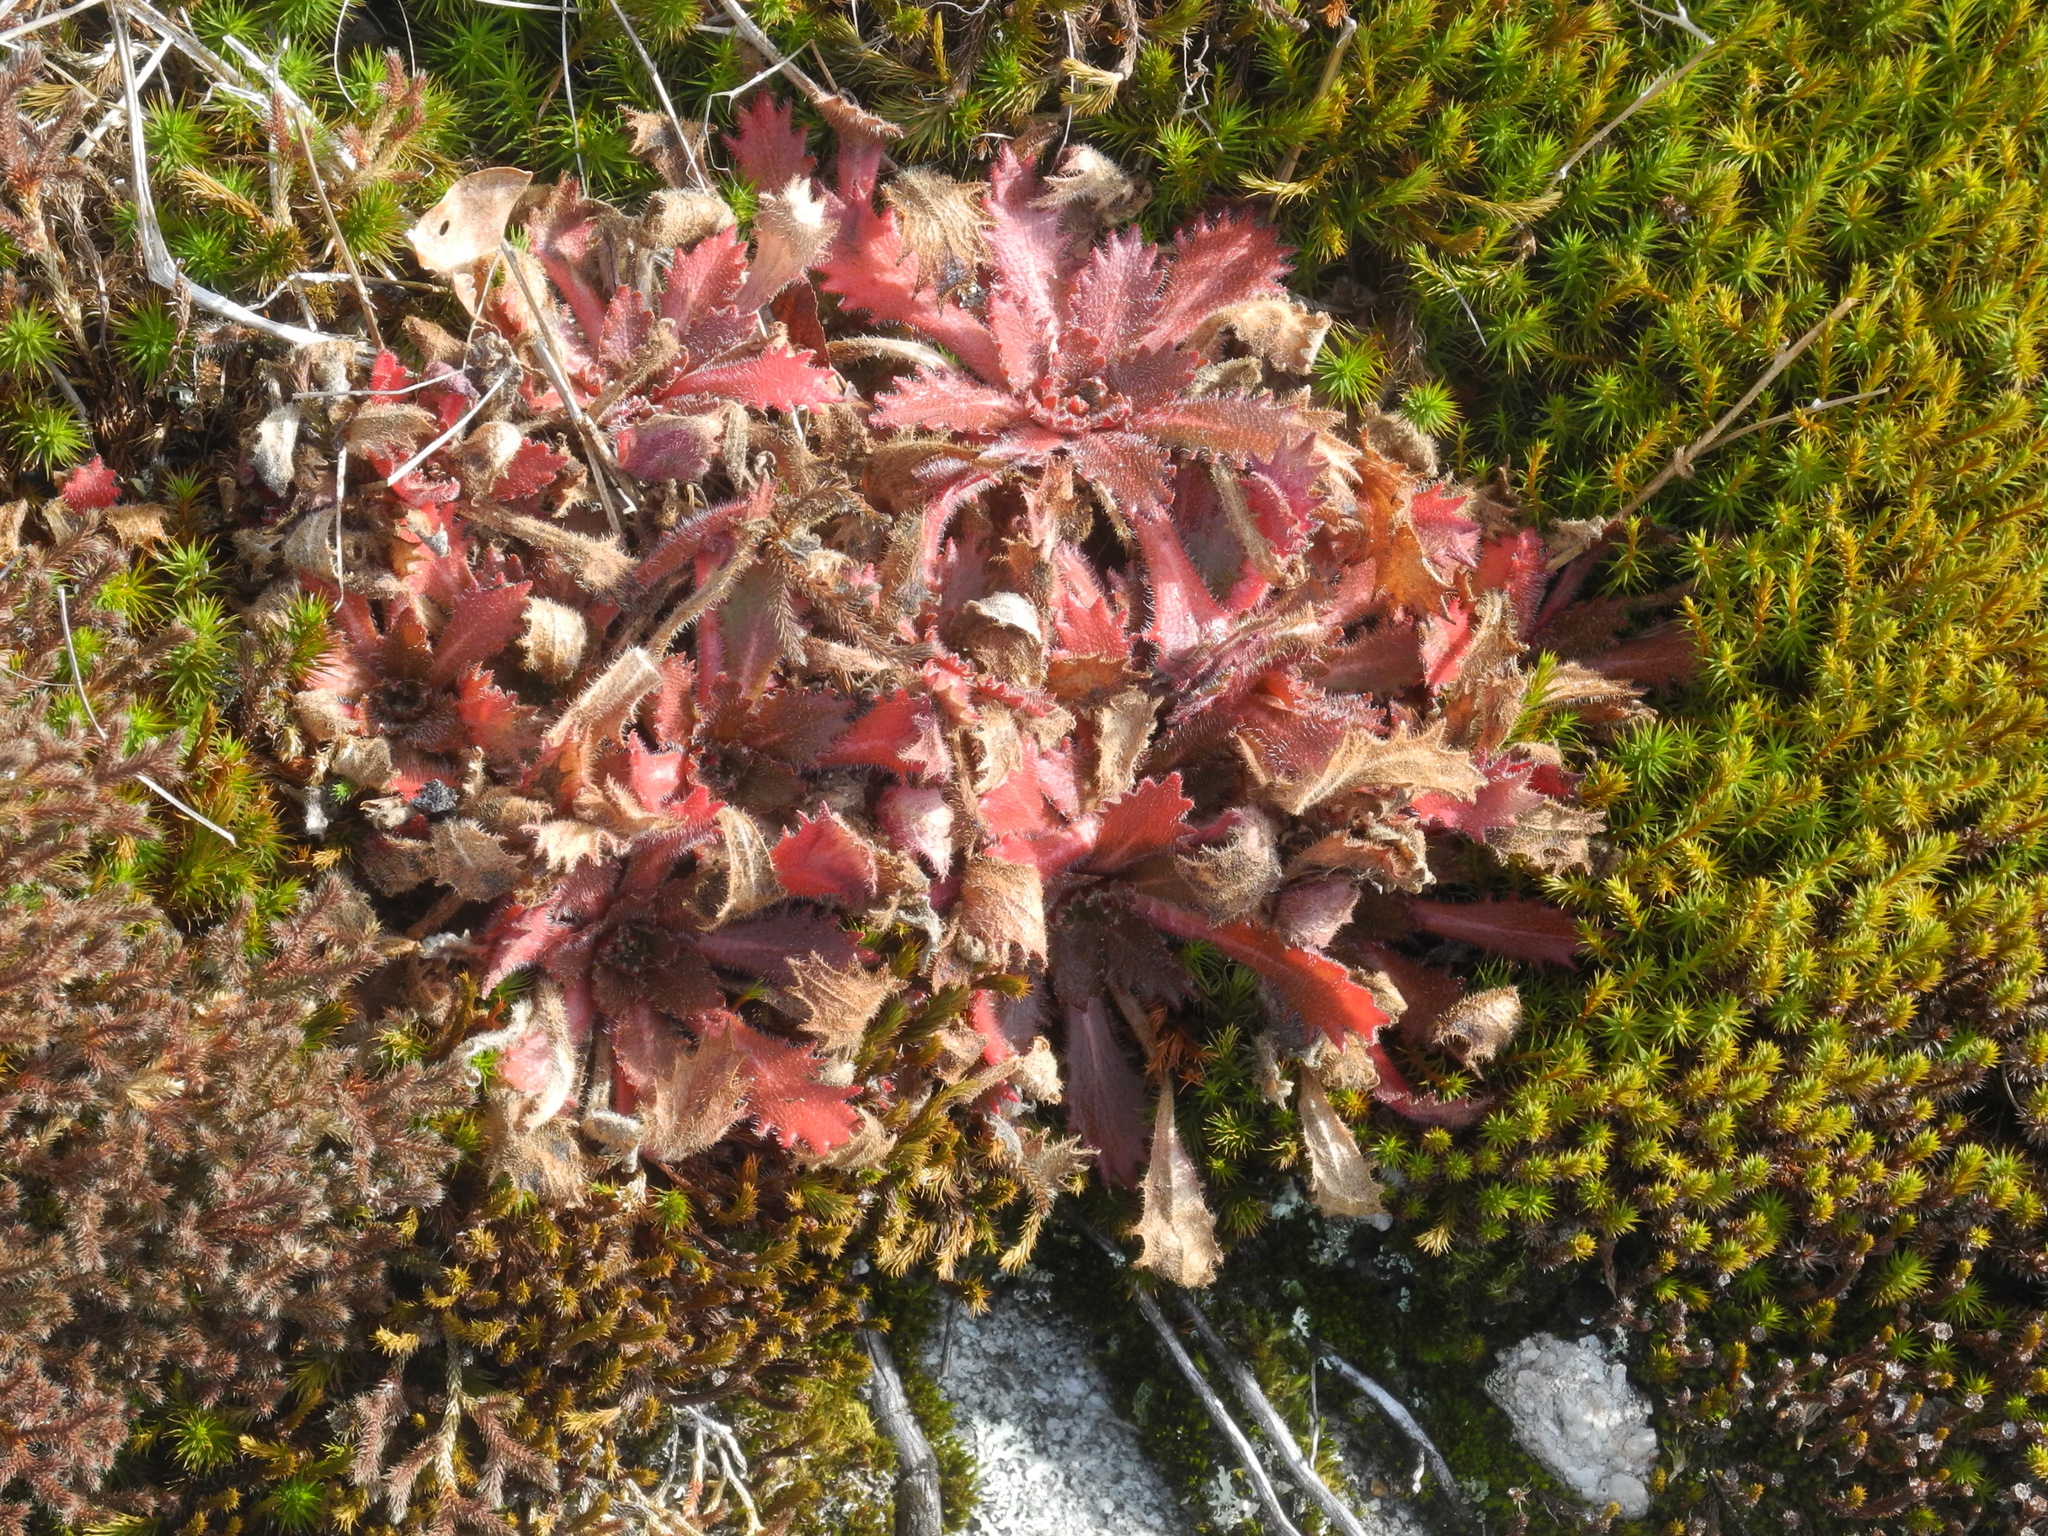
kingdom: Plantae
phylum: Tracheophyta
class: Magnoliopsida
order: Saxifragales
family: Saxifragaceae
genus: Micranthes
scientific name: Micranthes petiolaris
